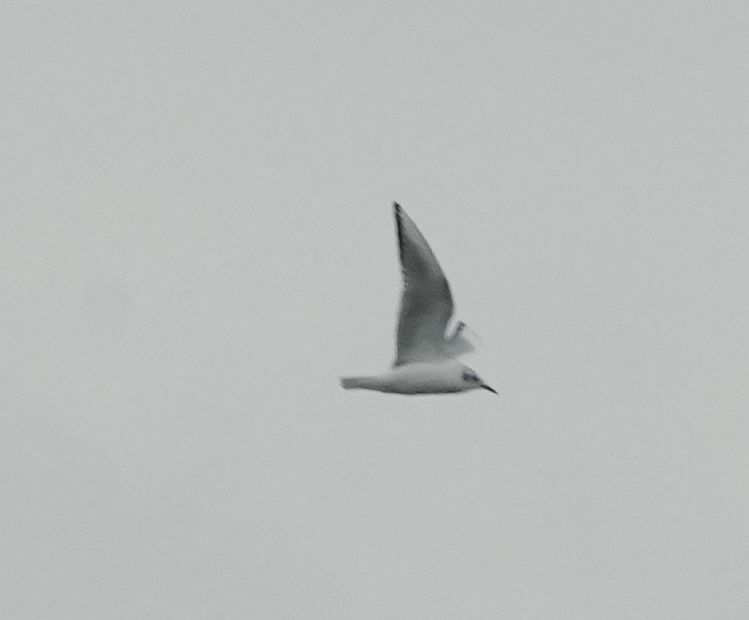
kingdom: Animalia
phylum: Chordata
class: Aves
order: Charadriiformes
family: Laridae
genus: Chroicocephalus
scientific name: Chroicocephalus philadelphia
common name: Bonaparte's gull
